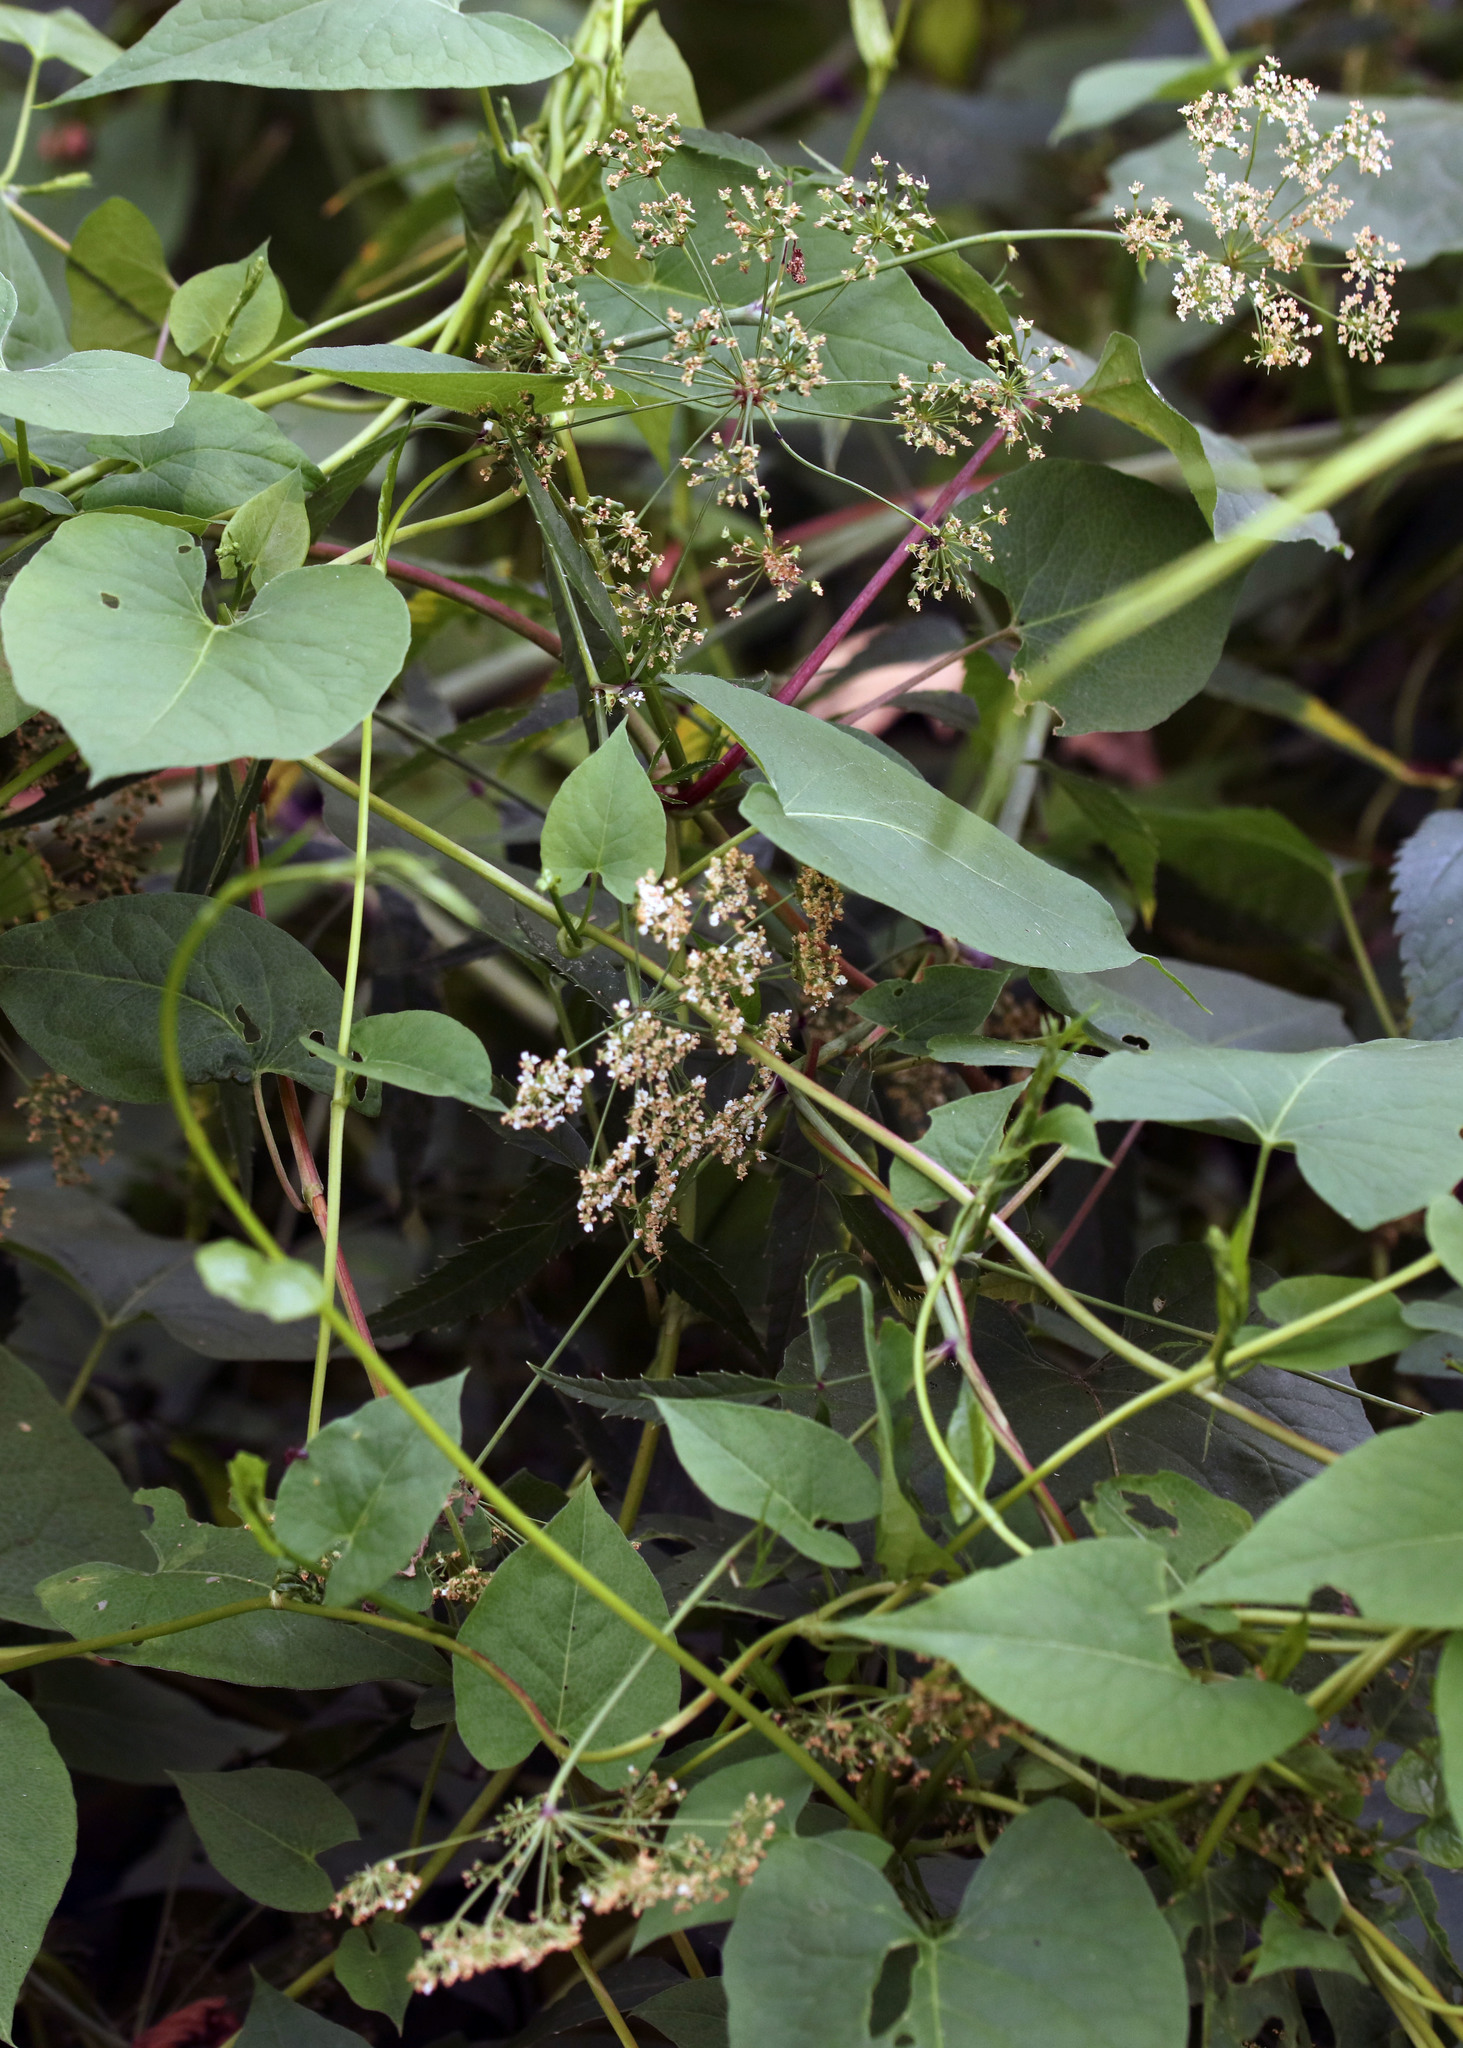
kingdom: Plantae
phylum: Tracheophyta
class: Magnoliopsida
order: Apiales
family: Apiaceae
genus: Cicuta
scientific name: Cicuta maculata
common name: Spotted cowbane
